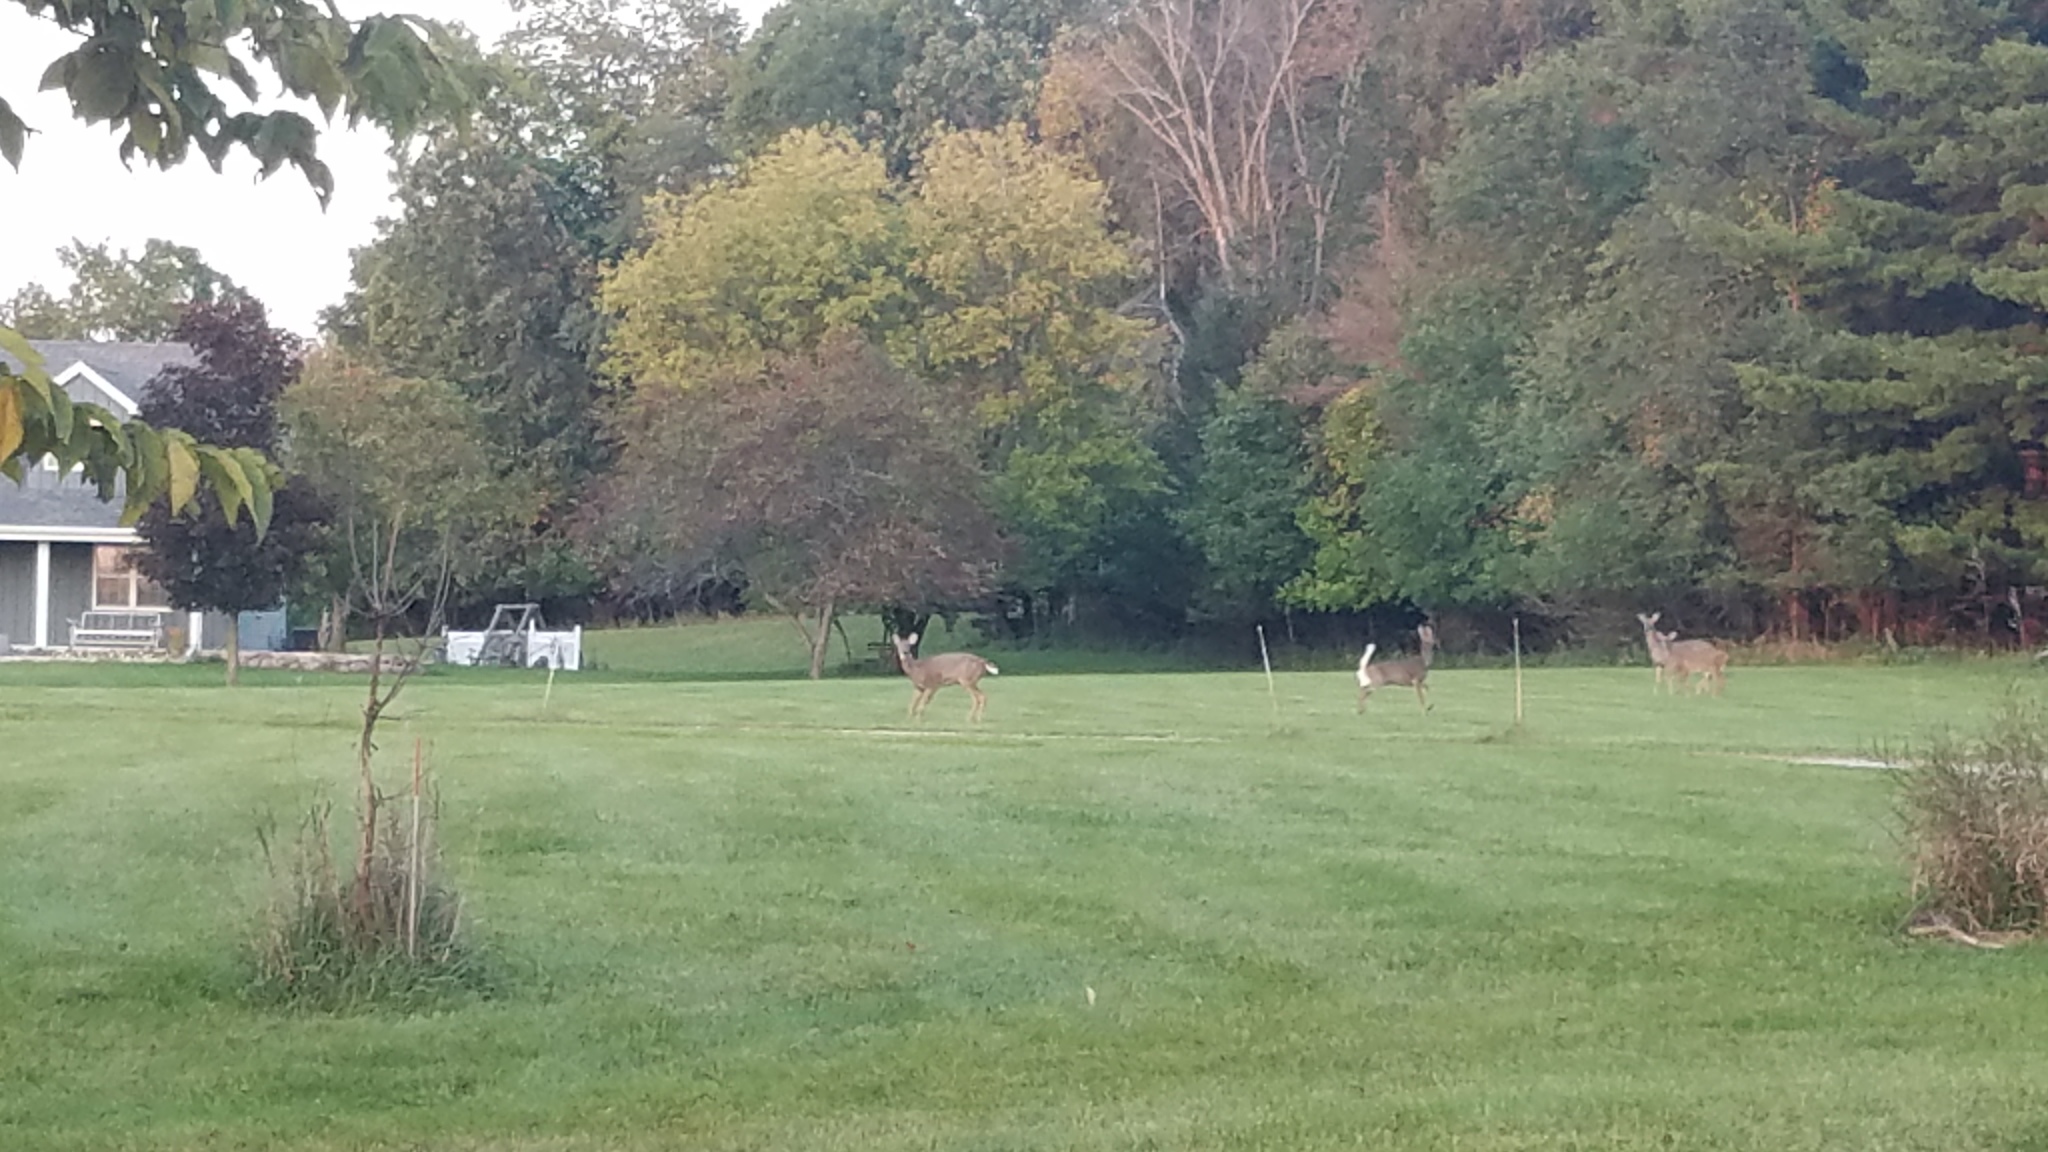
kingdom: Animalia
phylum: Chordata
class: Mammalia
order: Artiodactyla
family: Cervidae
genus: Odocoileus
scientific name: Odocoileus virginianus
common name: White-tailed deer
